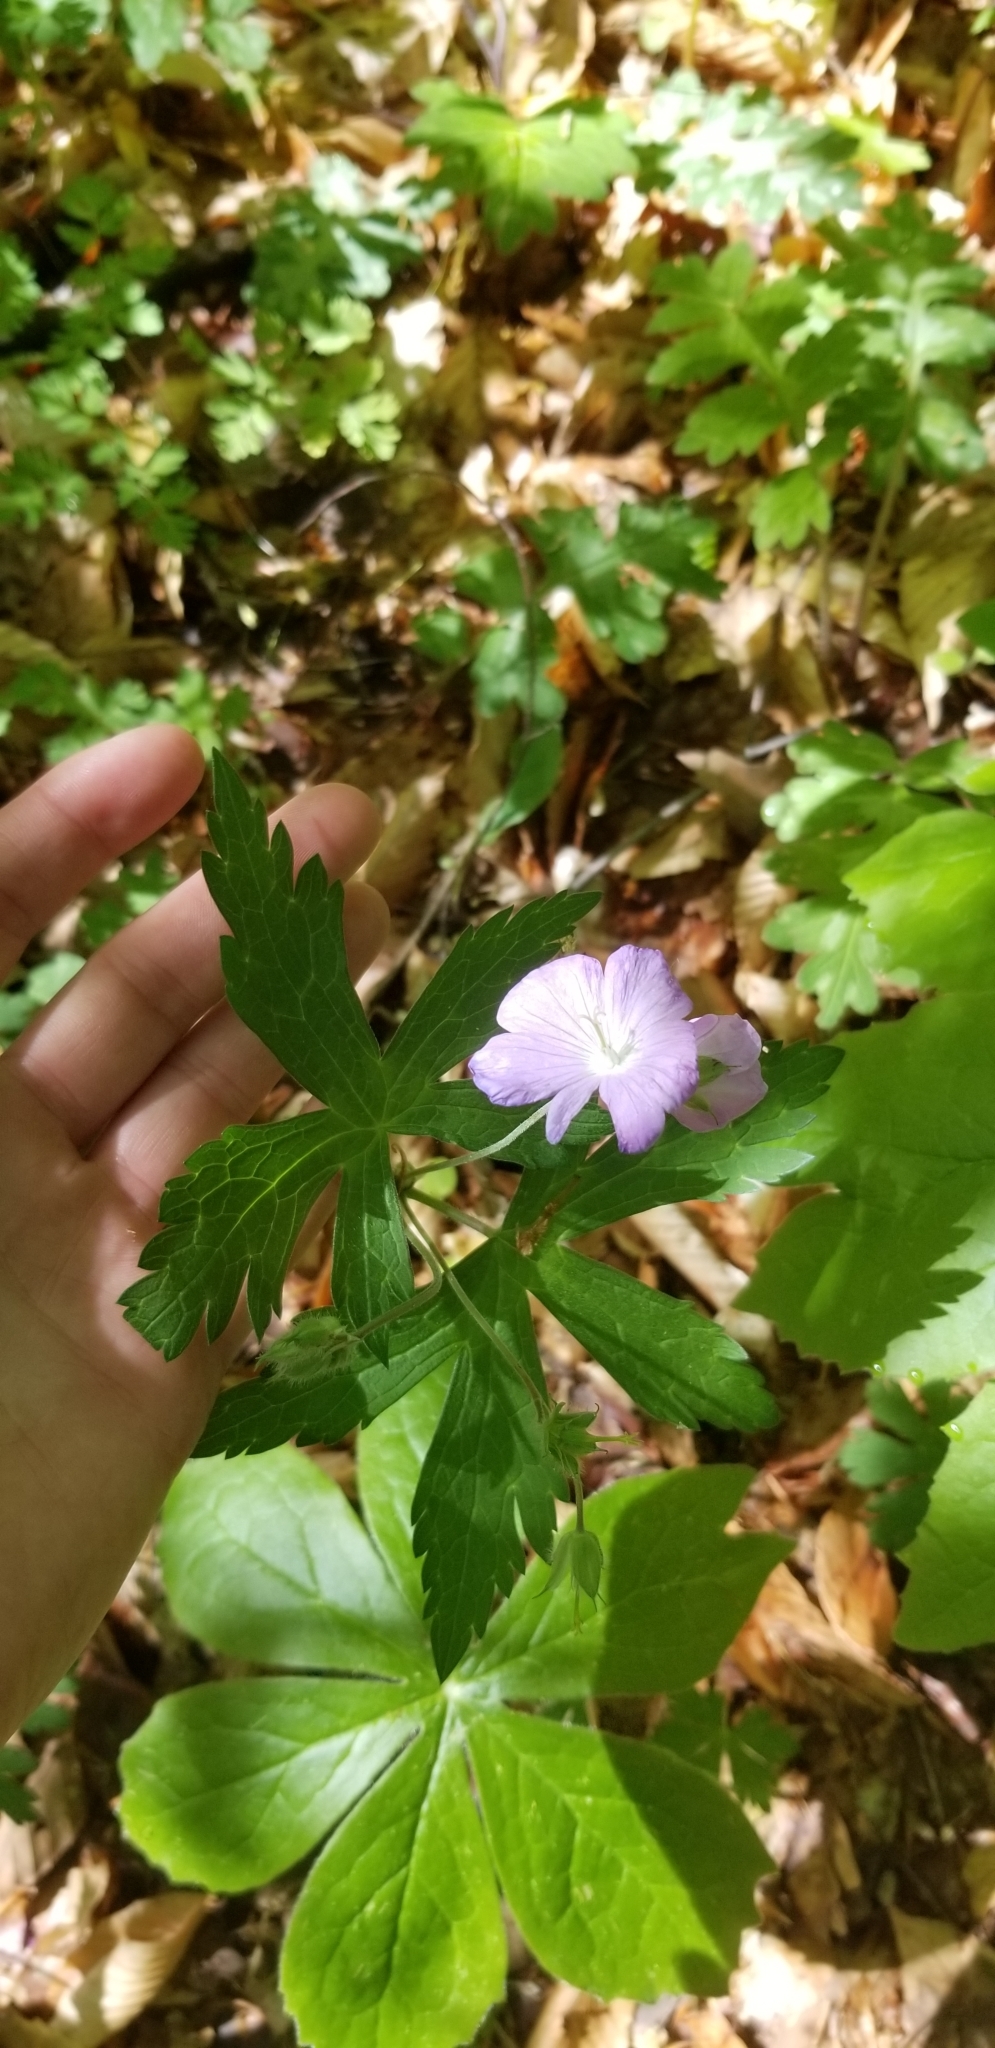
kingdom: Plantae
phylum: Tracheophyta
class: Magnoliopsida
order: Geraniales
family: Geraniaceae
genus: Geranium
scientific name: Geranium maculatum
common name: Spotted geranium
